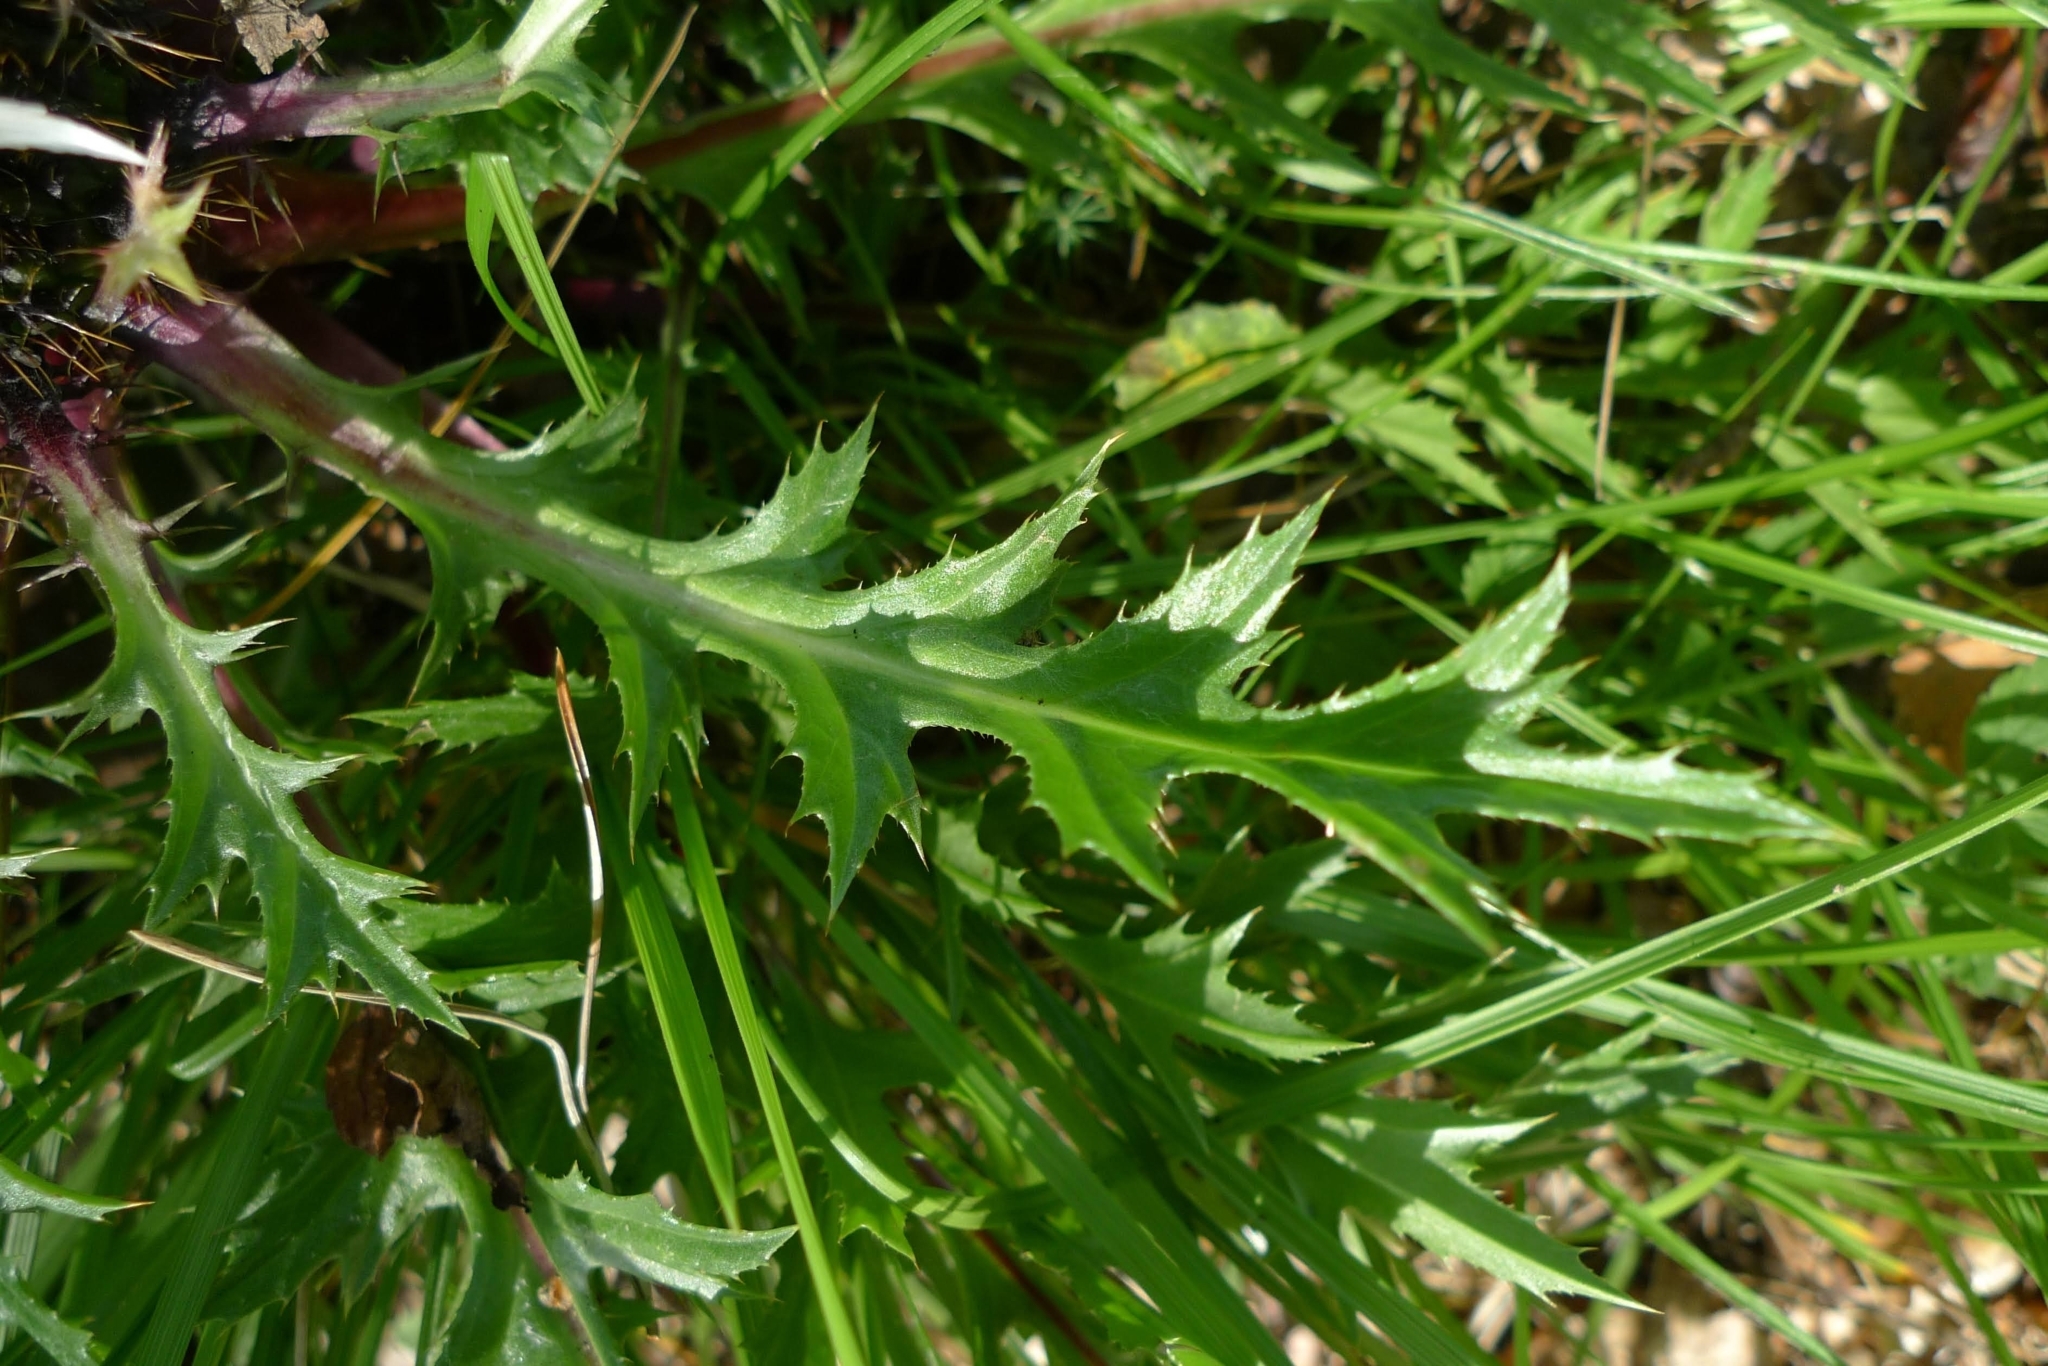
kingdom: Plantae
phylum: Tracheophyta
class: Magnoliopsida
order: Asterales
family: Asteraceae
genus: Carlina
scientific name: Carlina acaulis
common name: Stemless carline thistle
